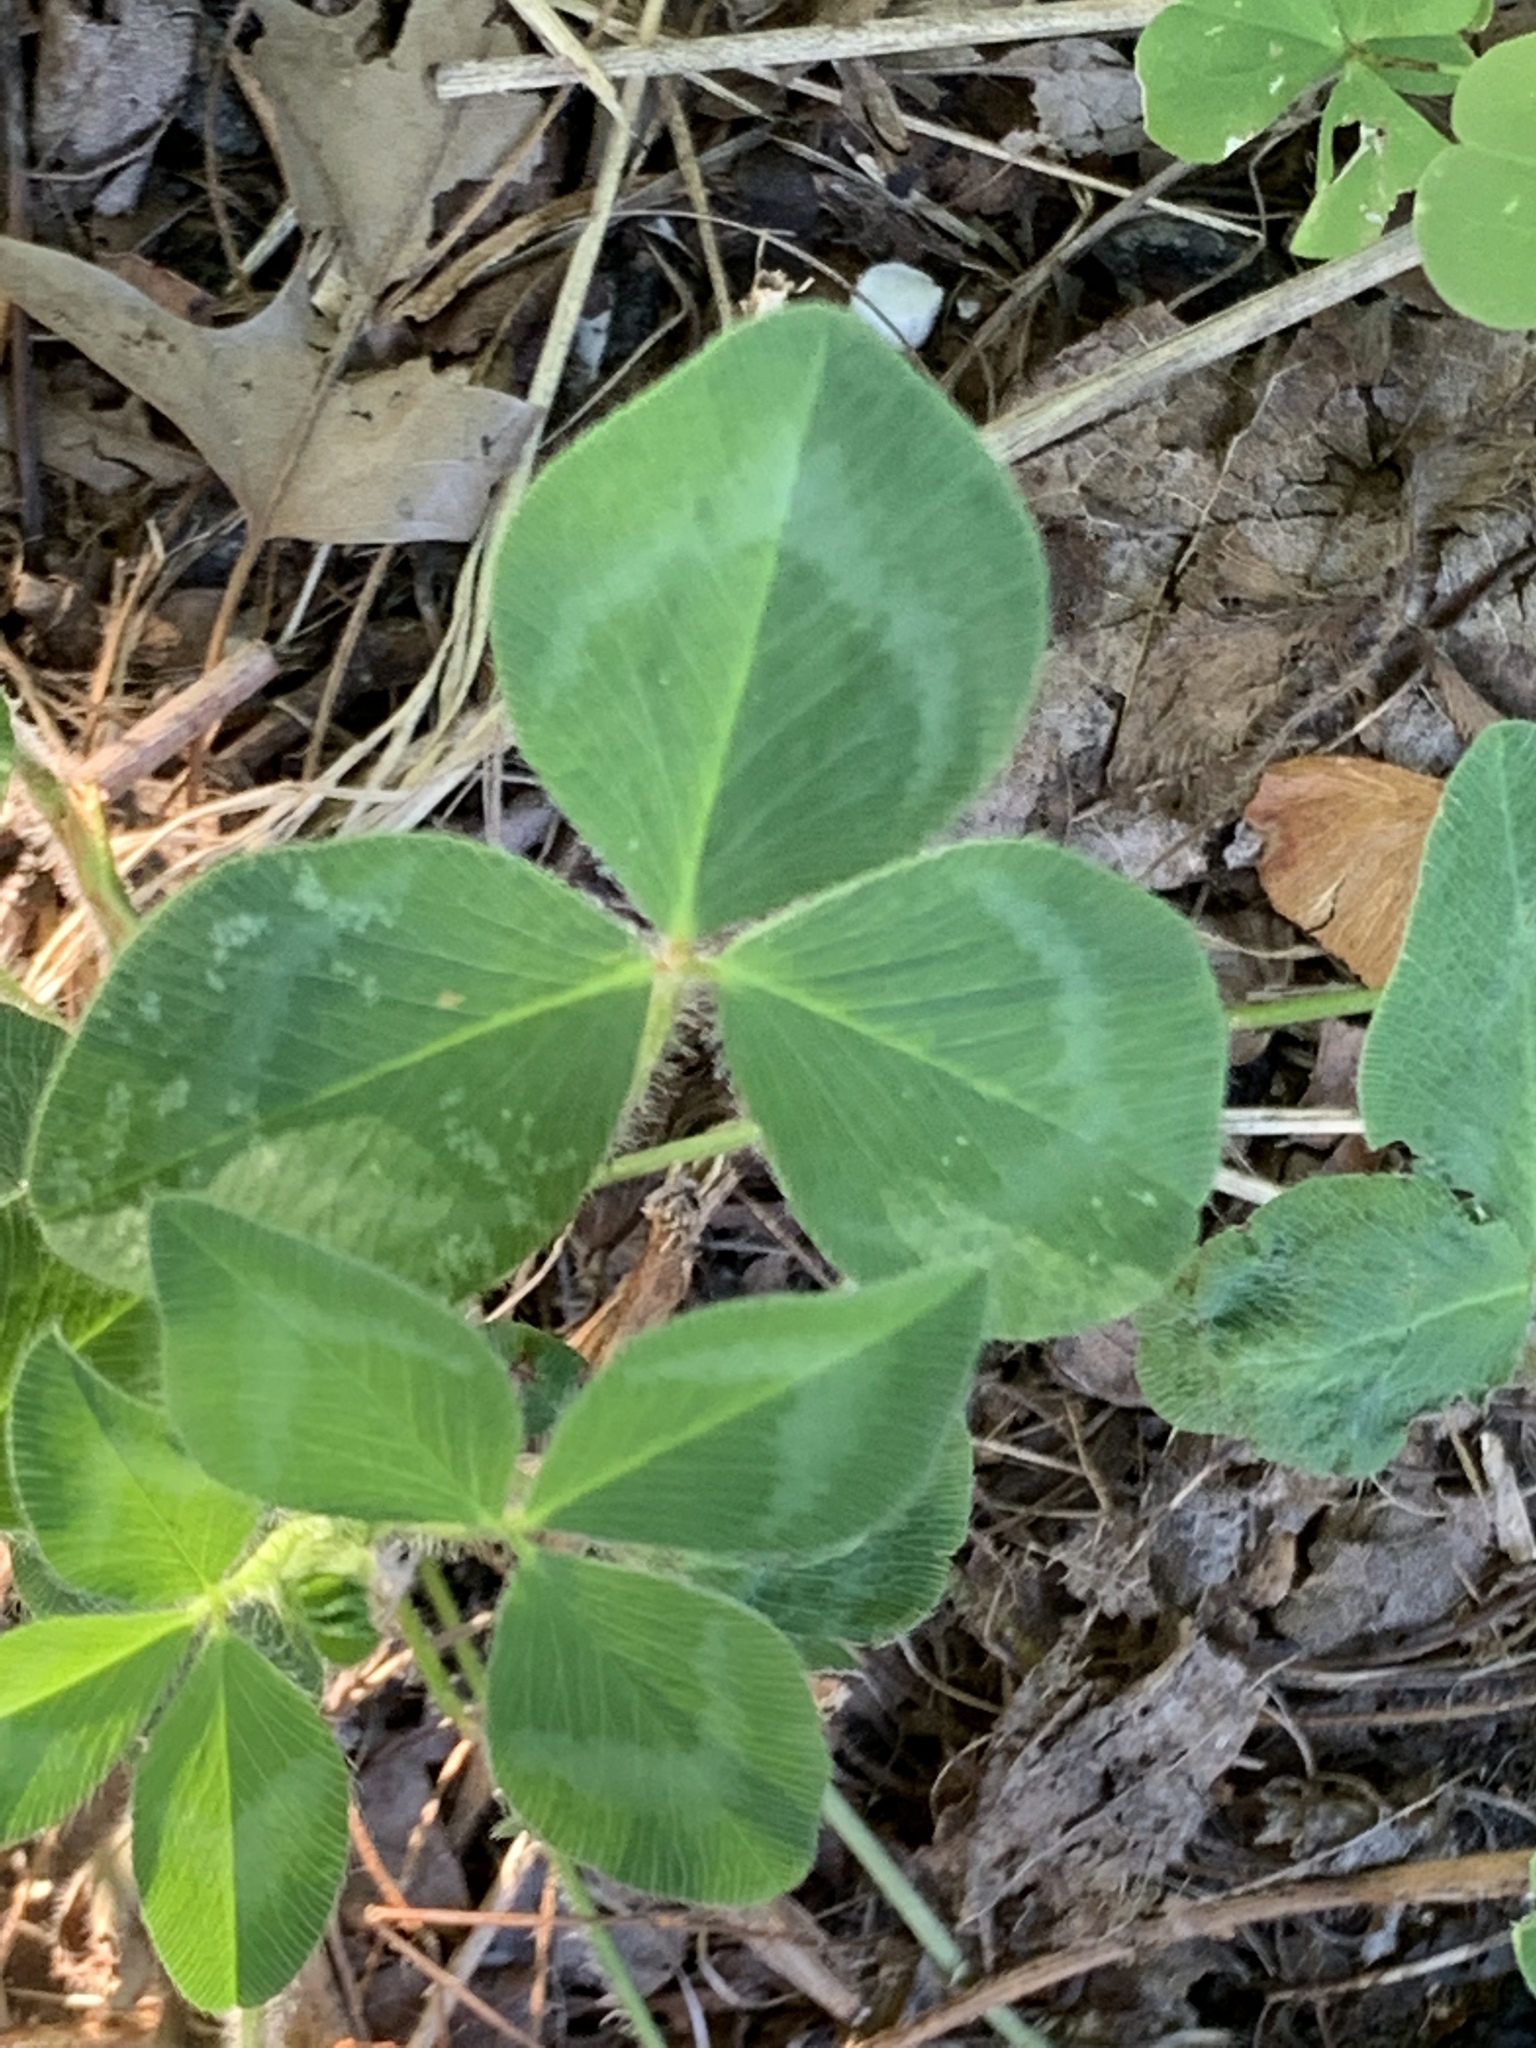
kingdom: Plantae
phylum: Tracheophyta
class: Magnoliopsida
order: Fabales
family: Fabaceae
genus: Trifolium
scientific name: Trifolium pratense
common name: Red clover
